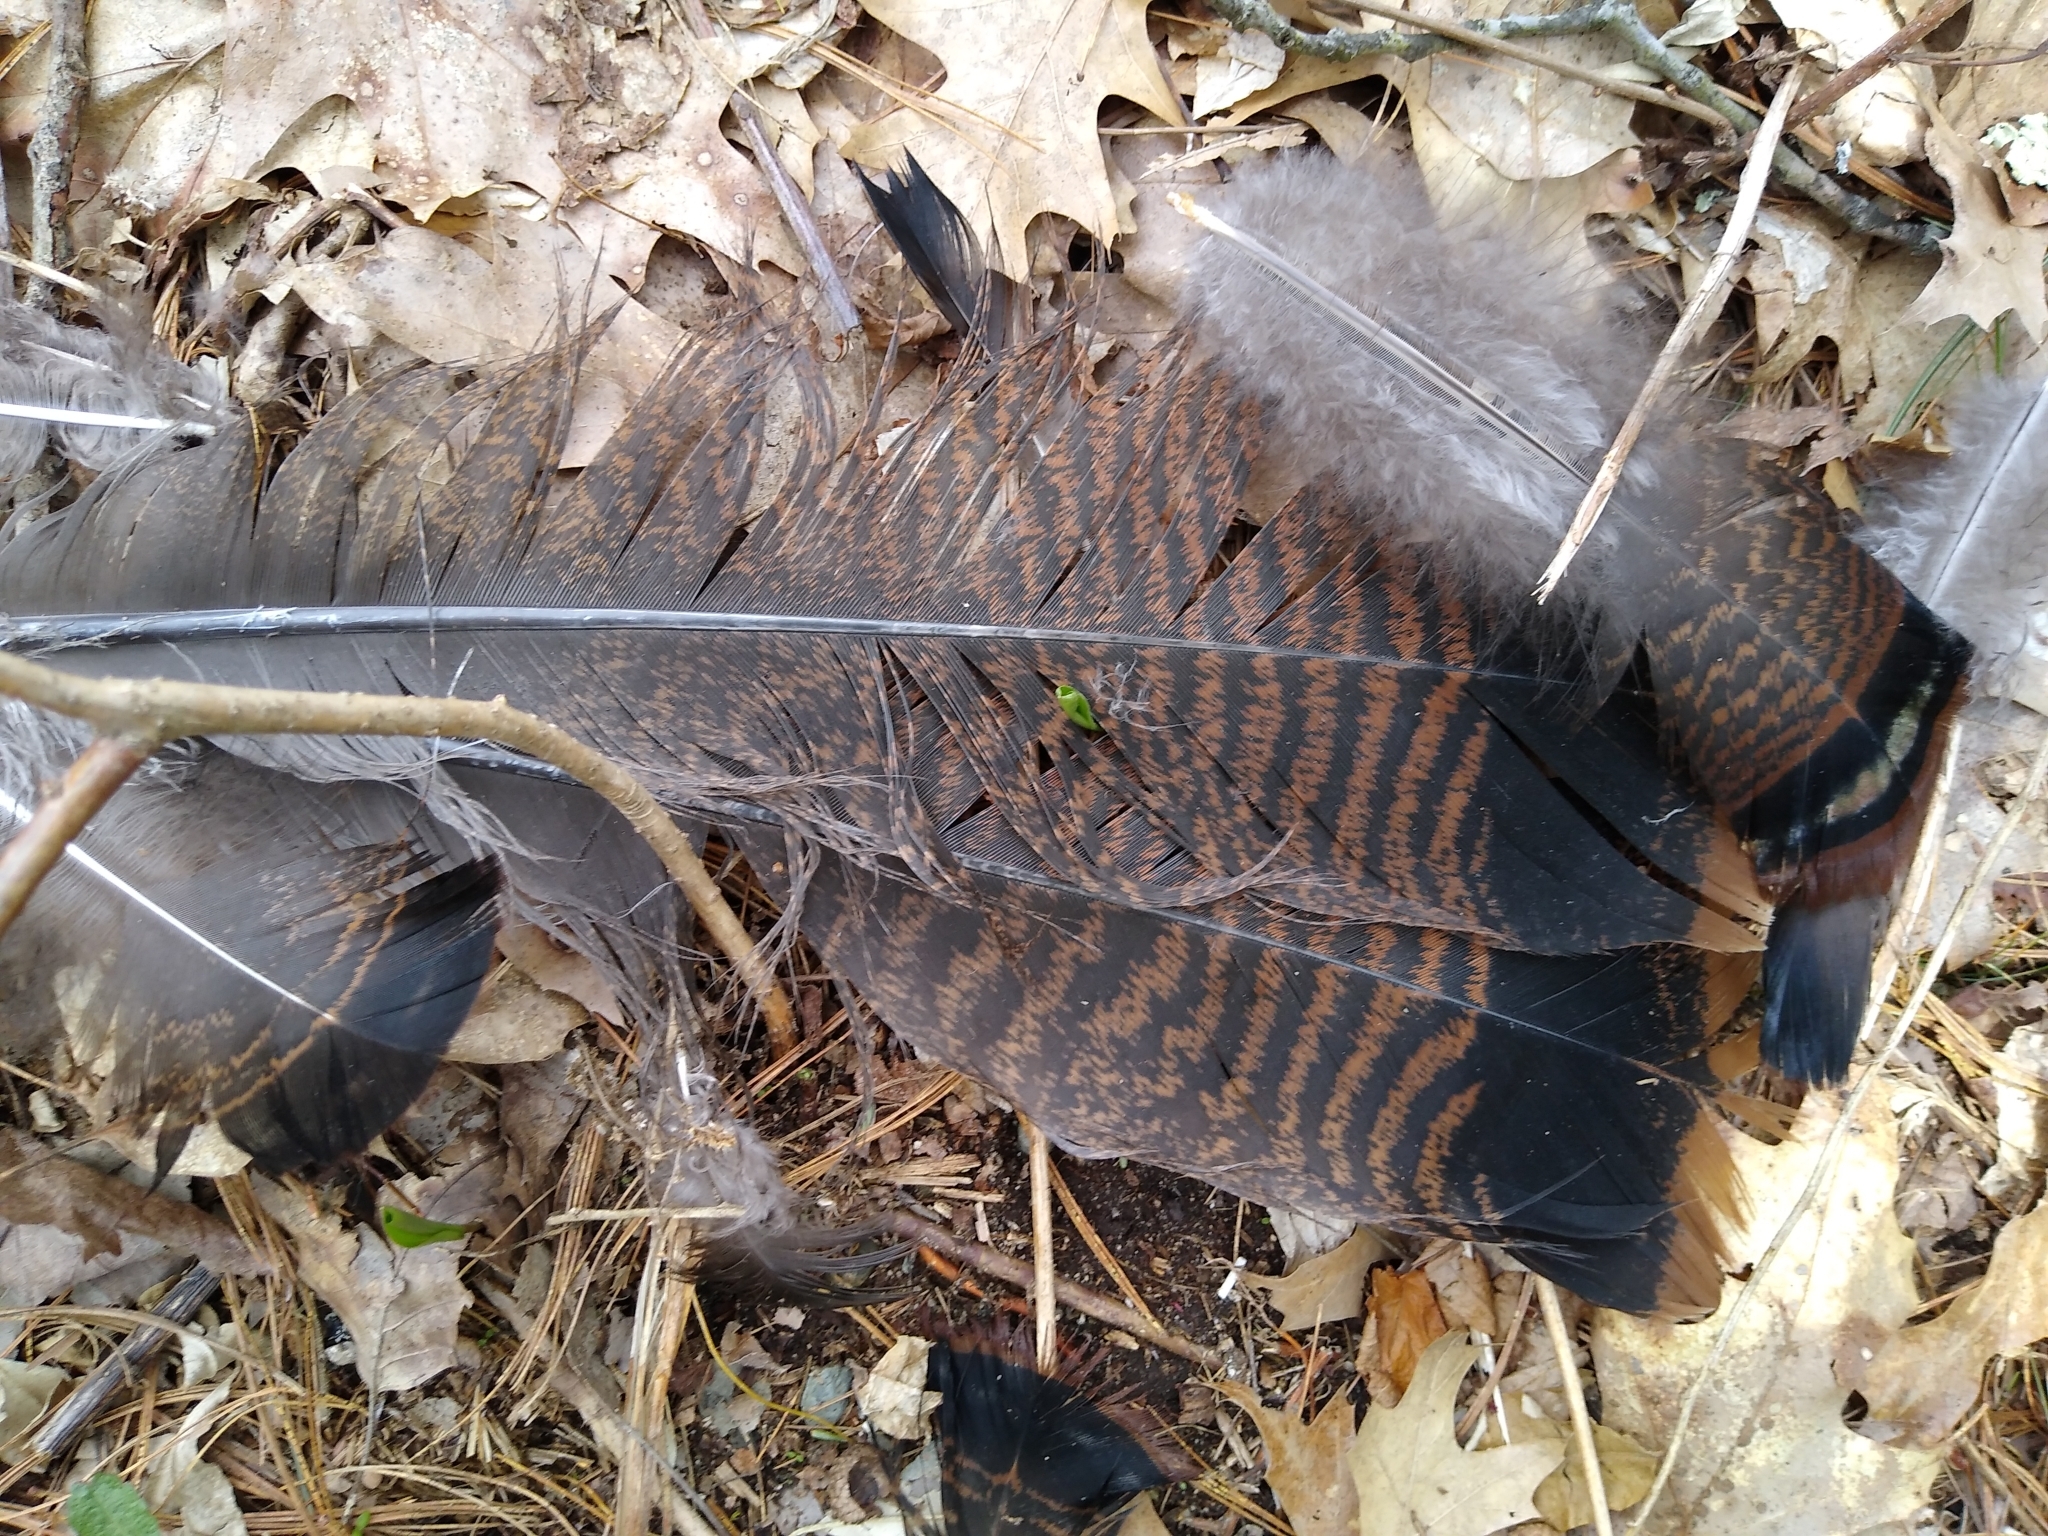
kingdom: Animalia
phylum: Chordata
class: Aves
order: Galliformes
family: Phasianidae
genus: Meleagris
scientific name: Meleagris gallopavo
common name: Wild turkey
